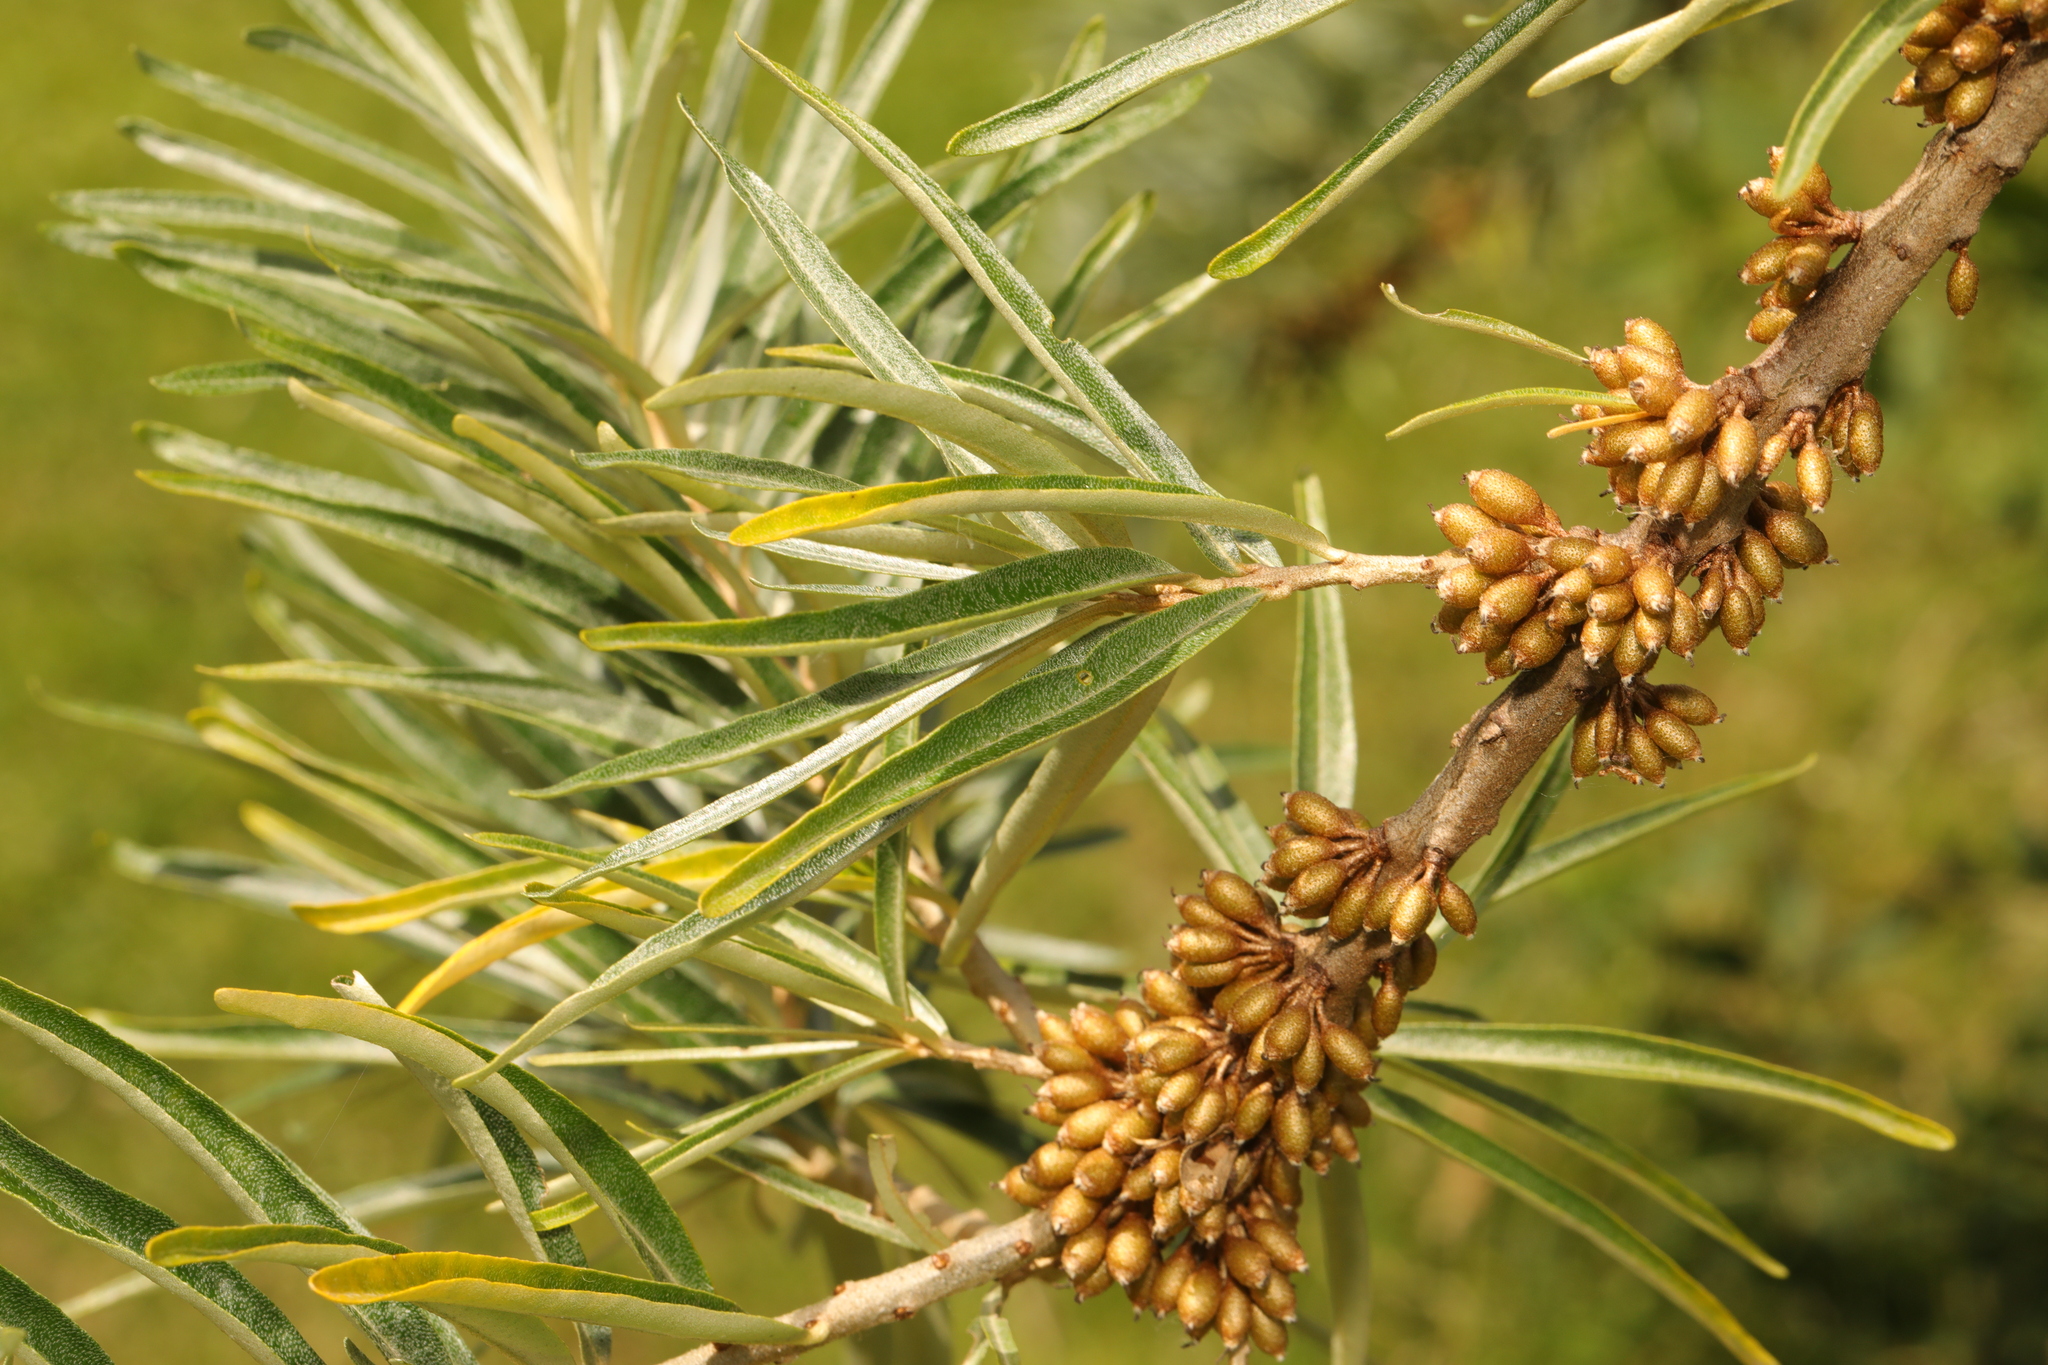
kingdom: Plantae
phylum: Tracheophyta
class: Magnoliopsida
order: Rosales
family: Elaeagnaceae
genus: Hippophae
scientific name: Hippophae rhamnoides
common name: Sea-buckthorn
